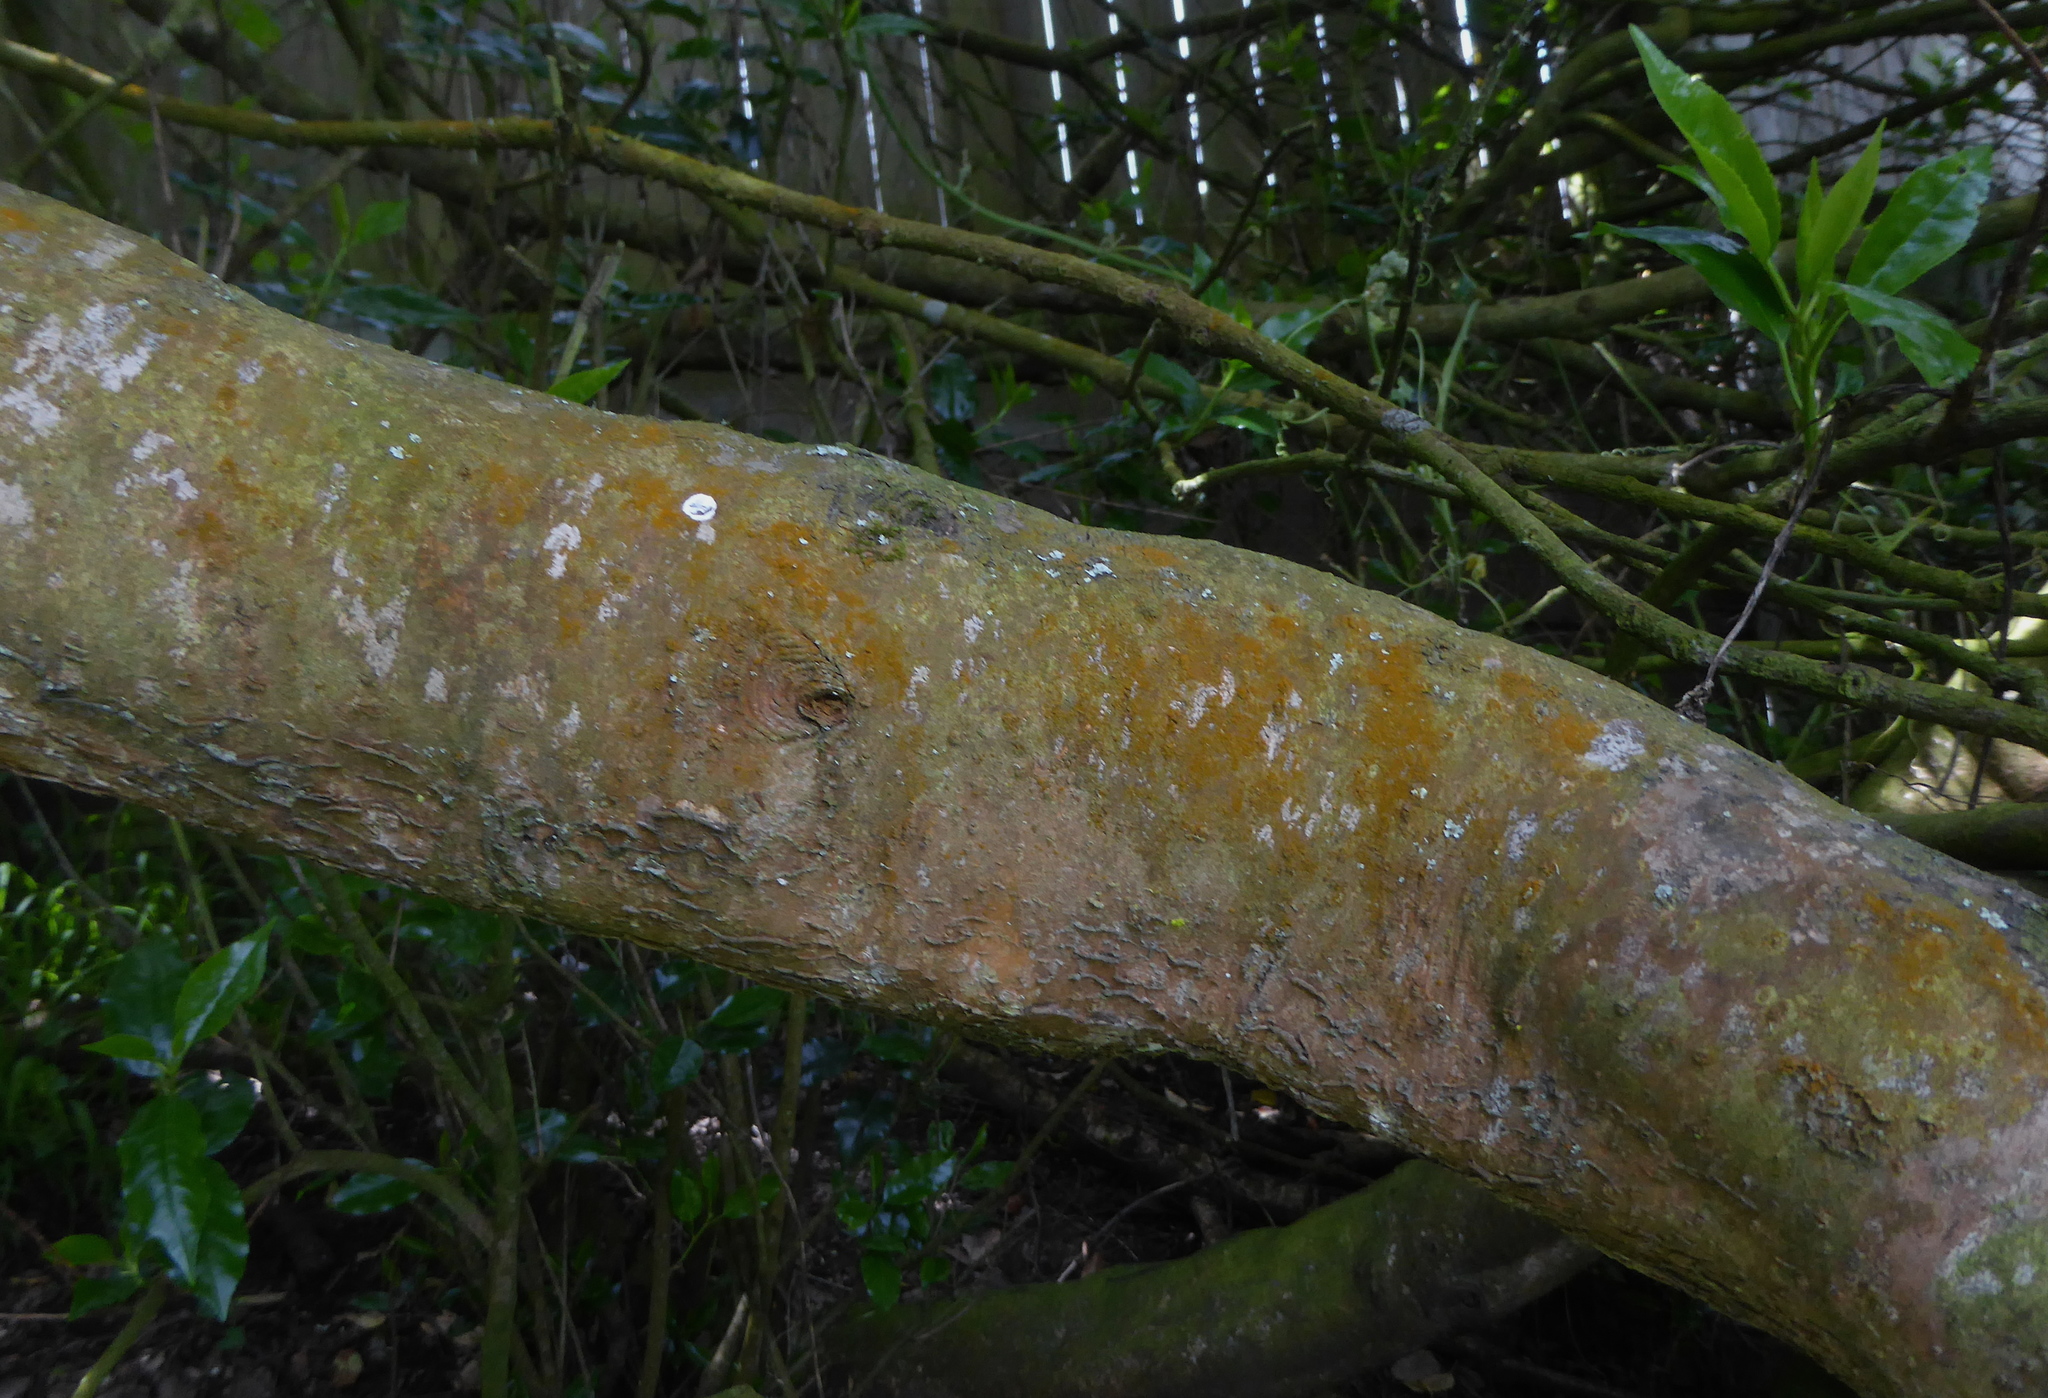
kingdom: Plantae
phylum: Tracheophyta
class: Magnoliopsida
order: Rosales
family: Rosaceae
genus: Prunus
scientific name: Prunus lusitanica
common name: Portugal laurel
